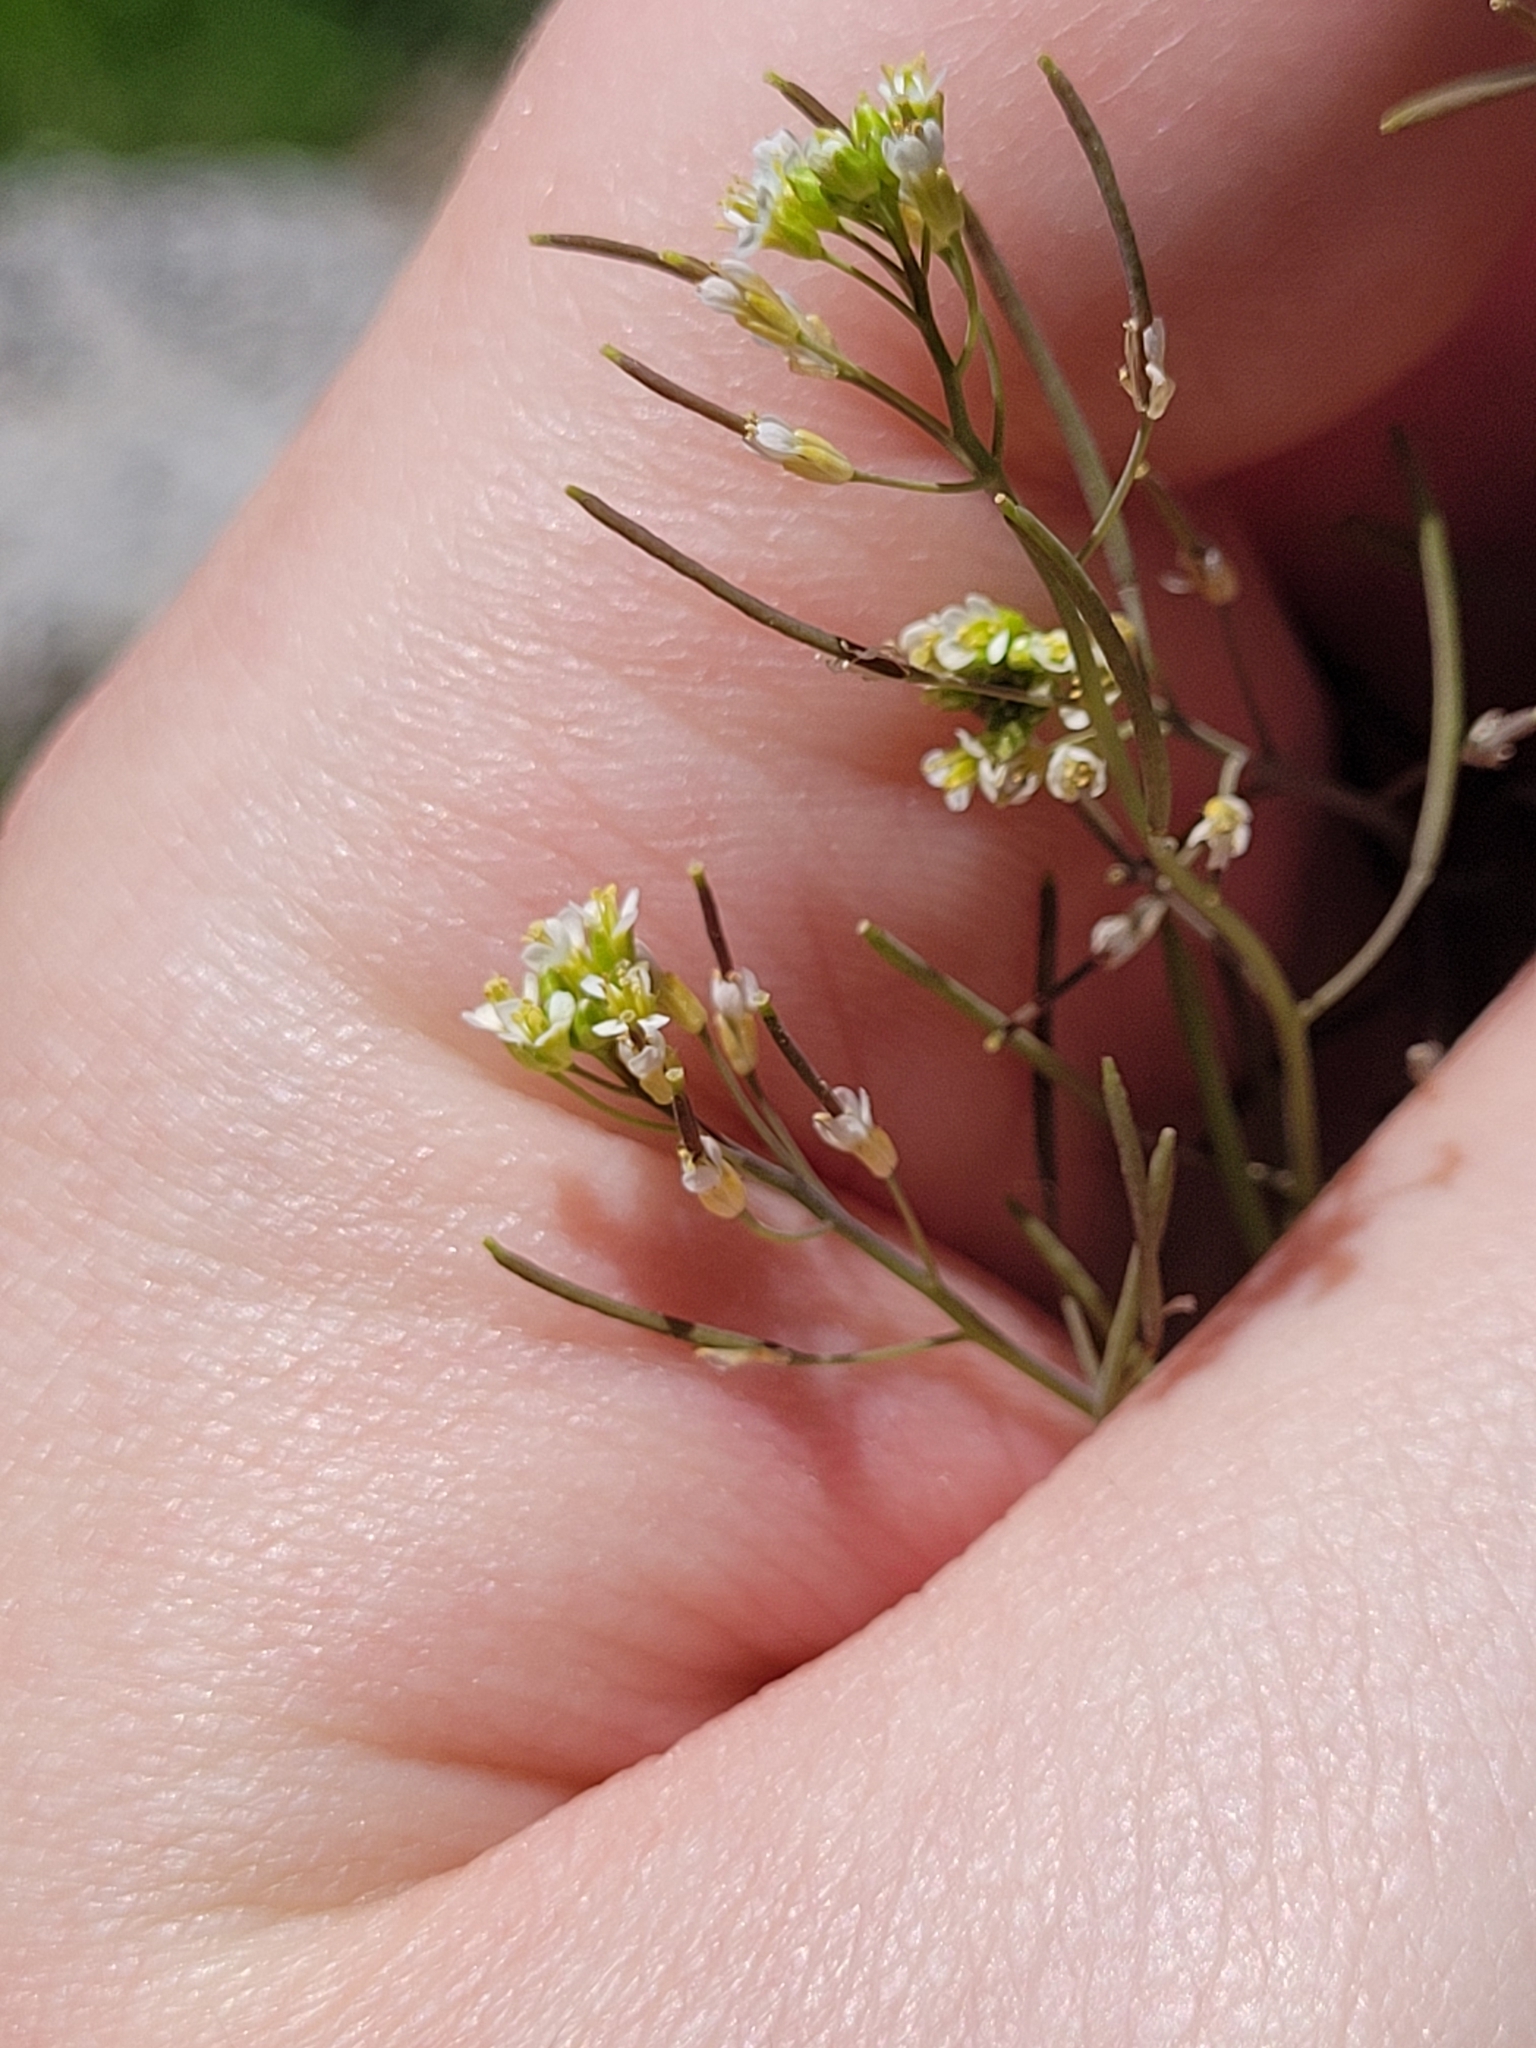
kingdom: Plantae
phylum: Tracheophyta
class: Magnoliopsida
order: Brassicales
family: Brassicaceae
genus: Arabidopsis
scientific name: Arabidopsis thaliana
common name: Thale cress
